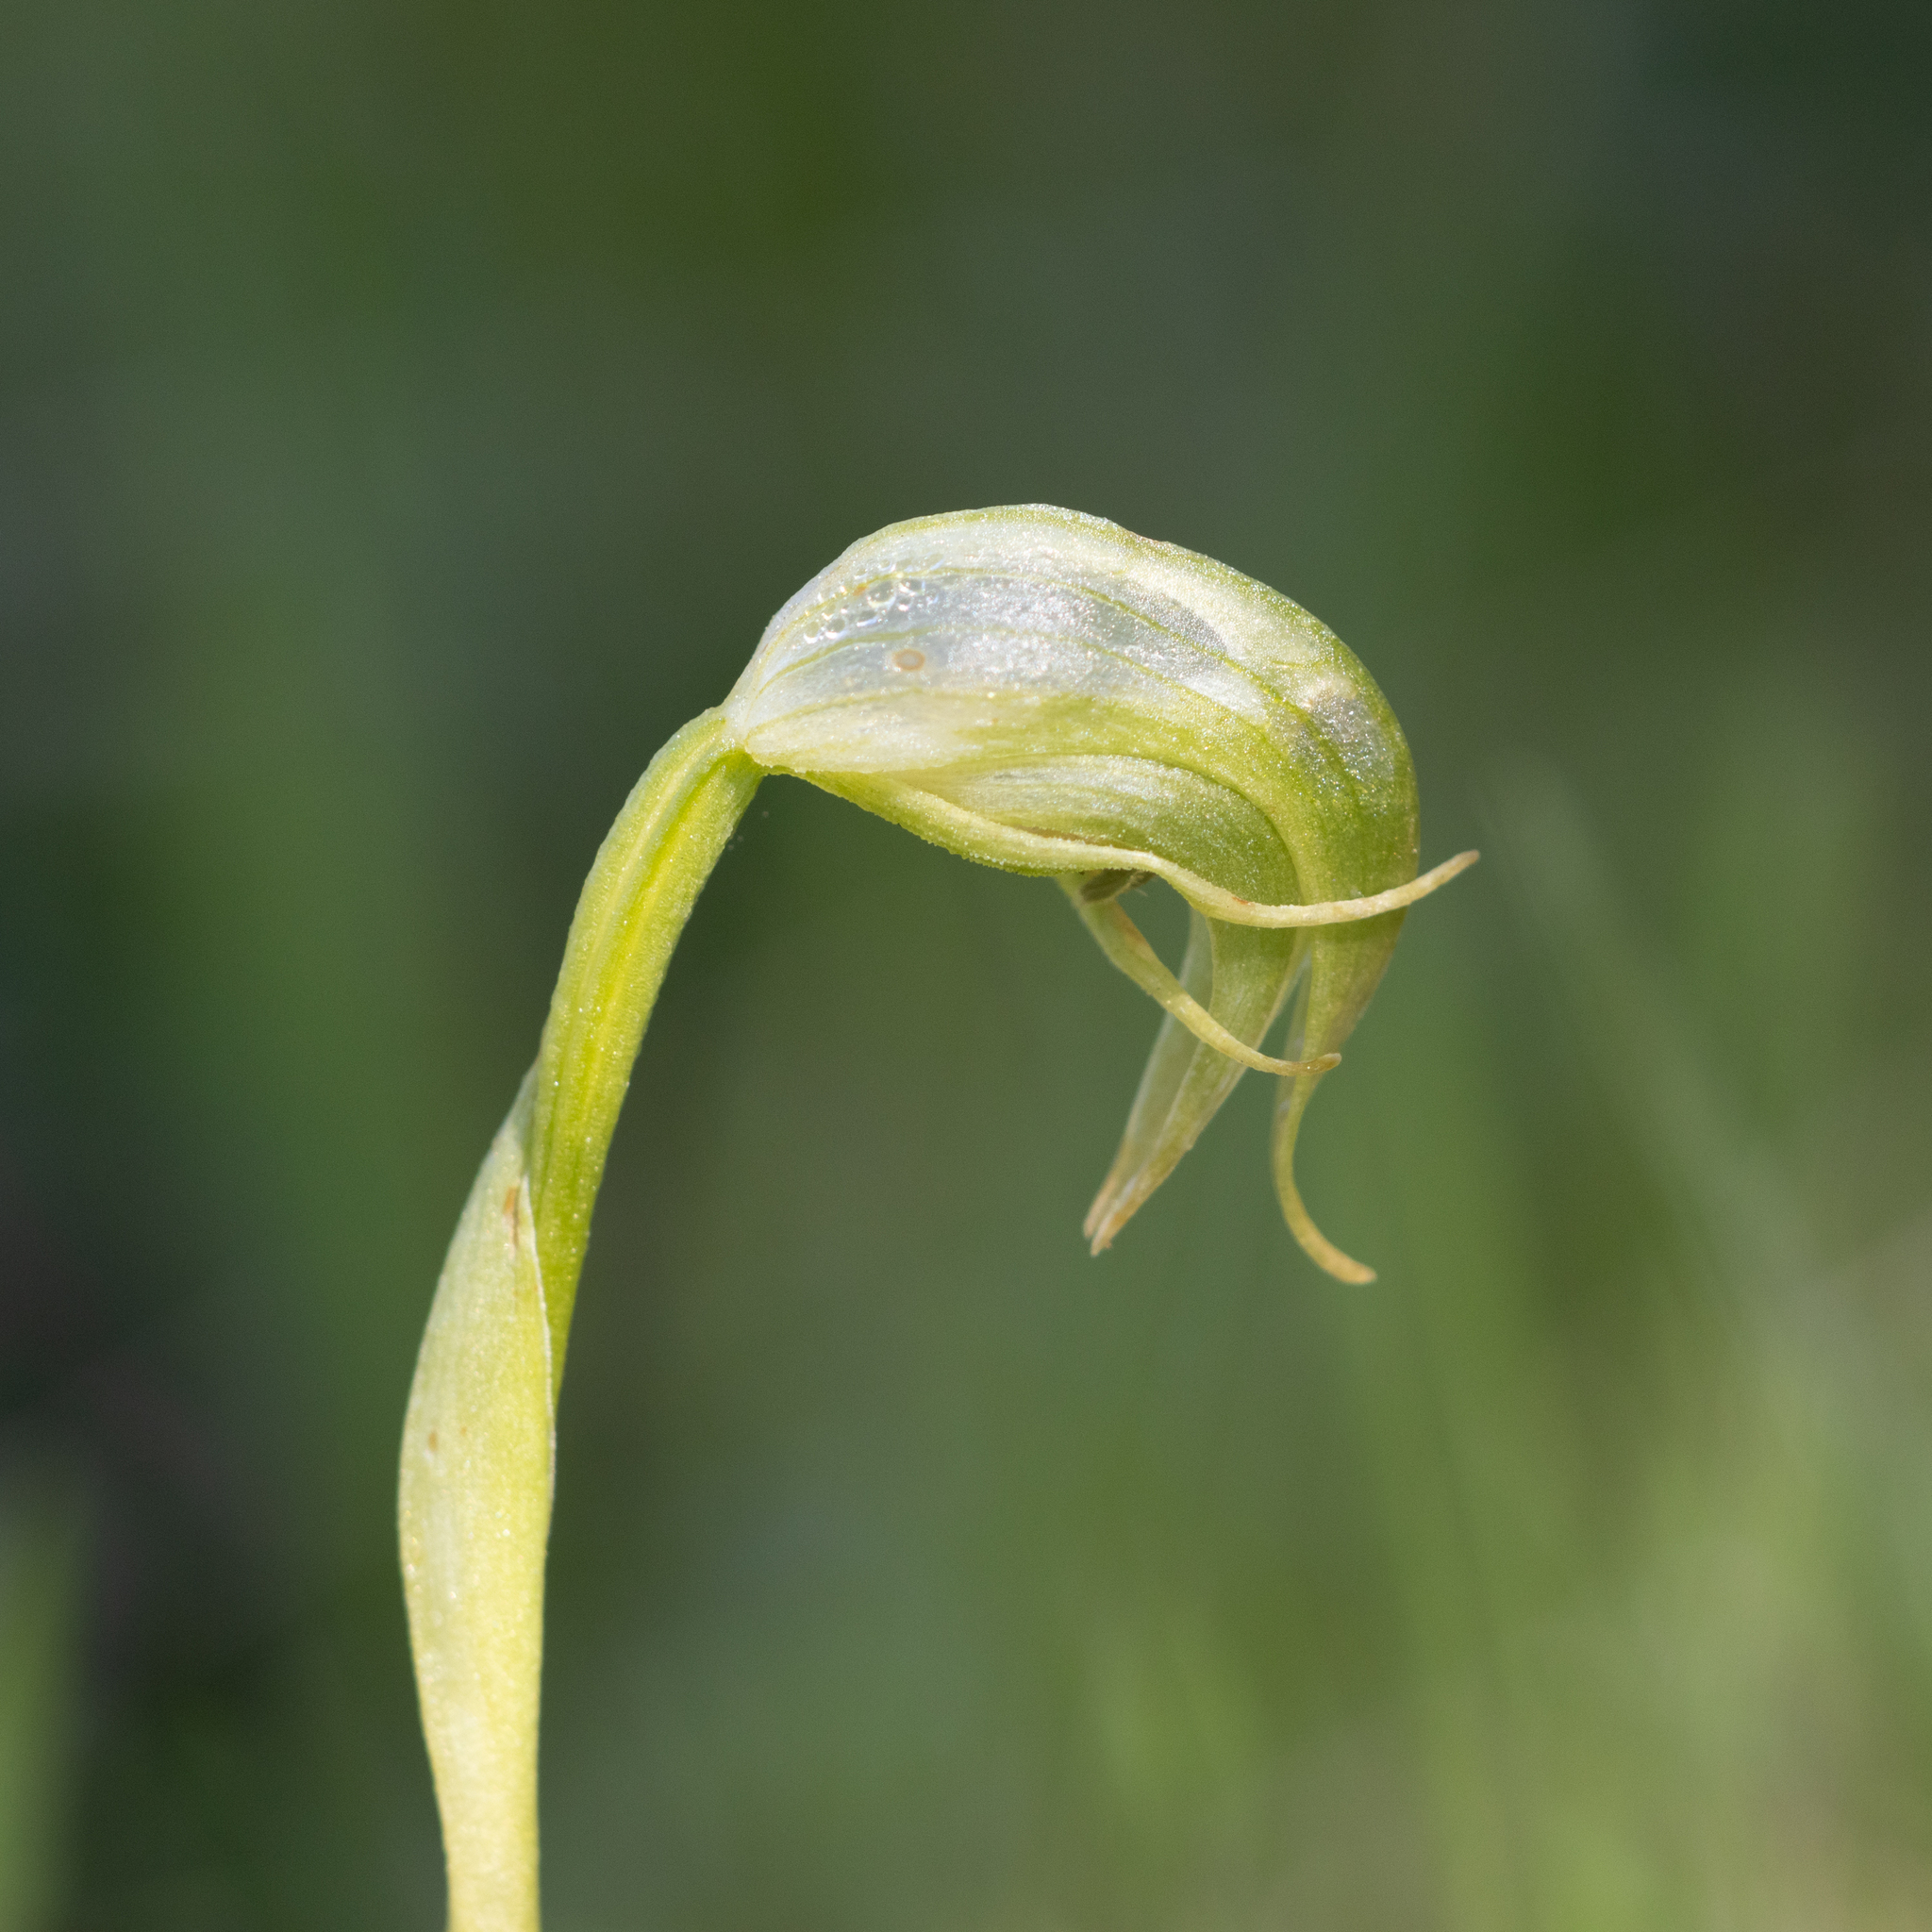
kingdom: Plantae
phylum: Tracheophyta
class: Liliopsida
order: Asparagales
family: Orchidaceae
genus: Pterostylis
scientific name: Pterostylis nutans
